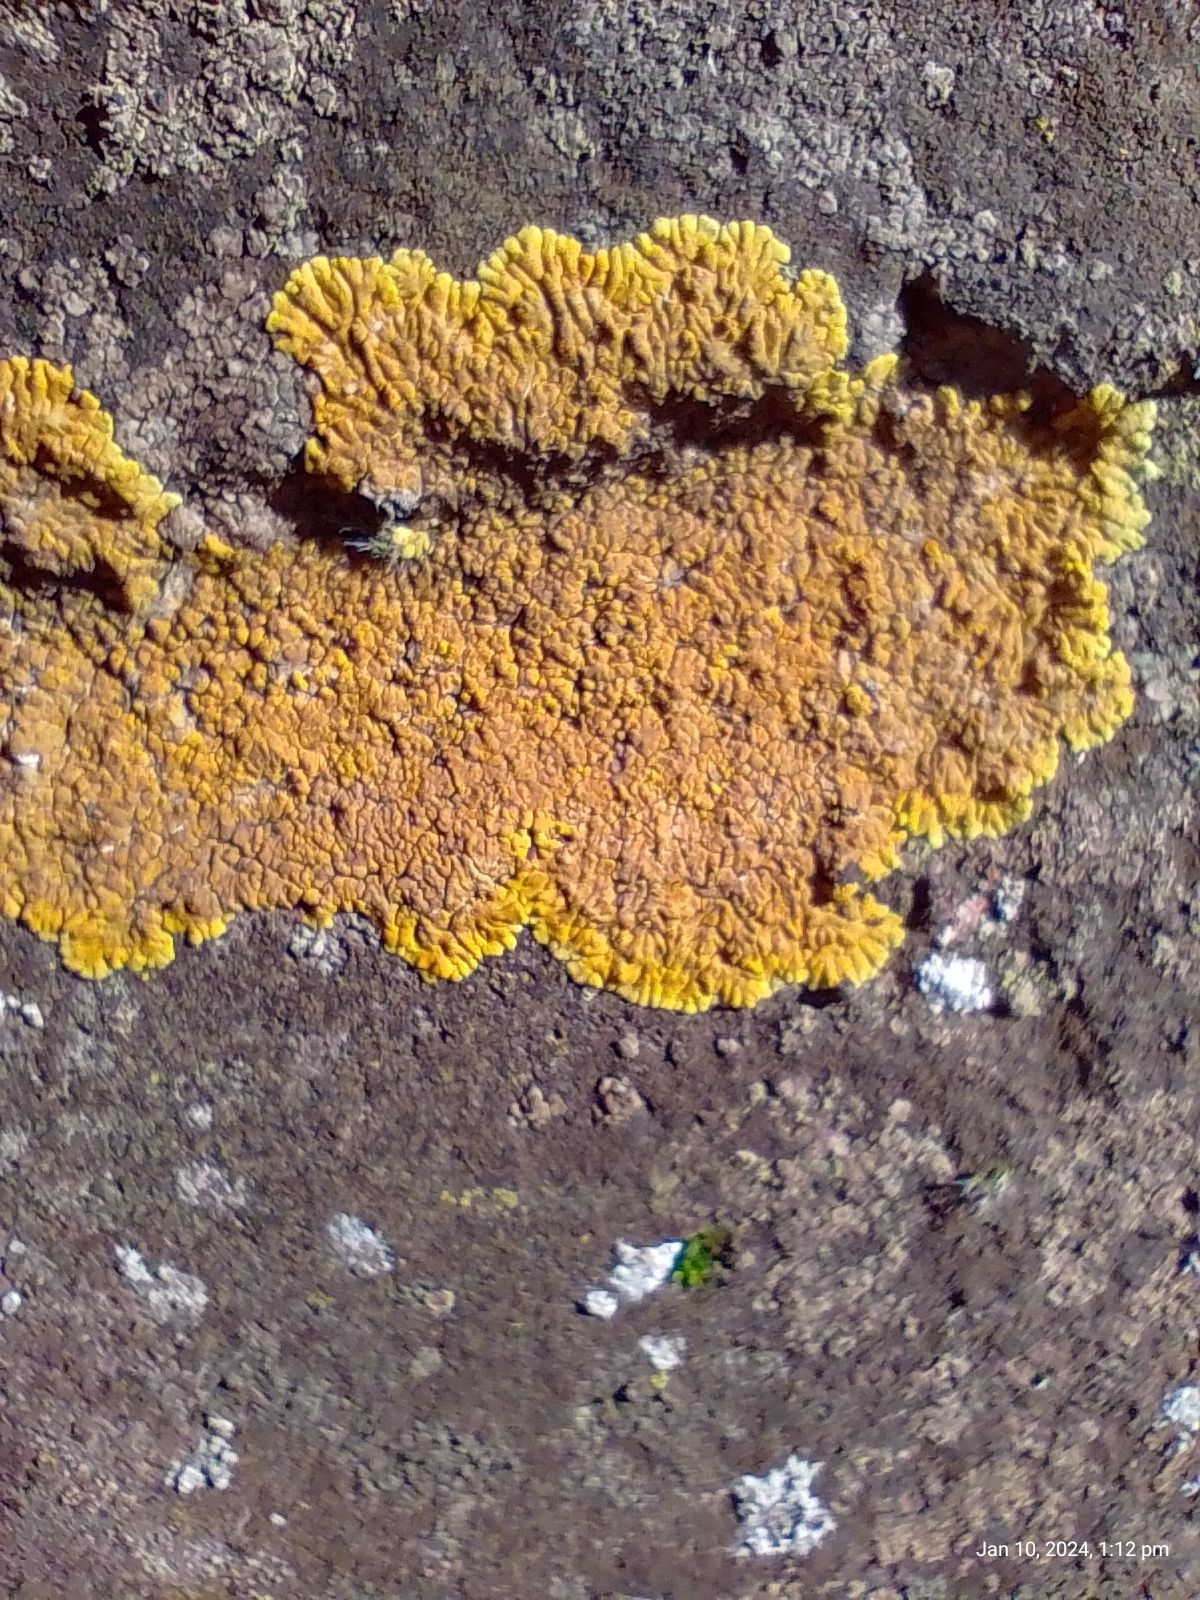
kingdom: Fungi
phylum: Ascomycota
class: Lecanoromycetes
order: Teloschistales
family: Teloschistaceae
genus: Variospora
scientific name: Variospora flavescens
